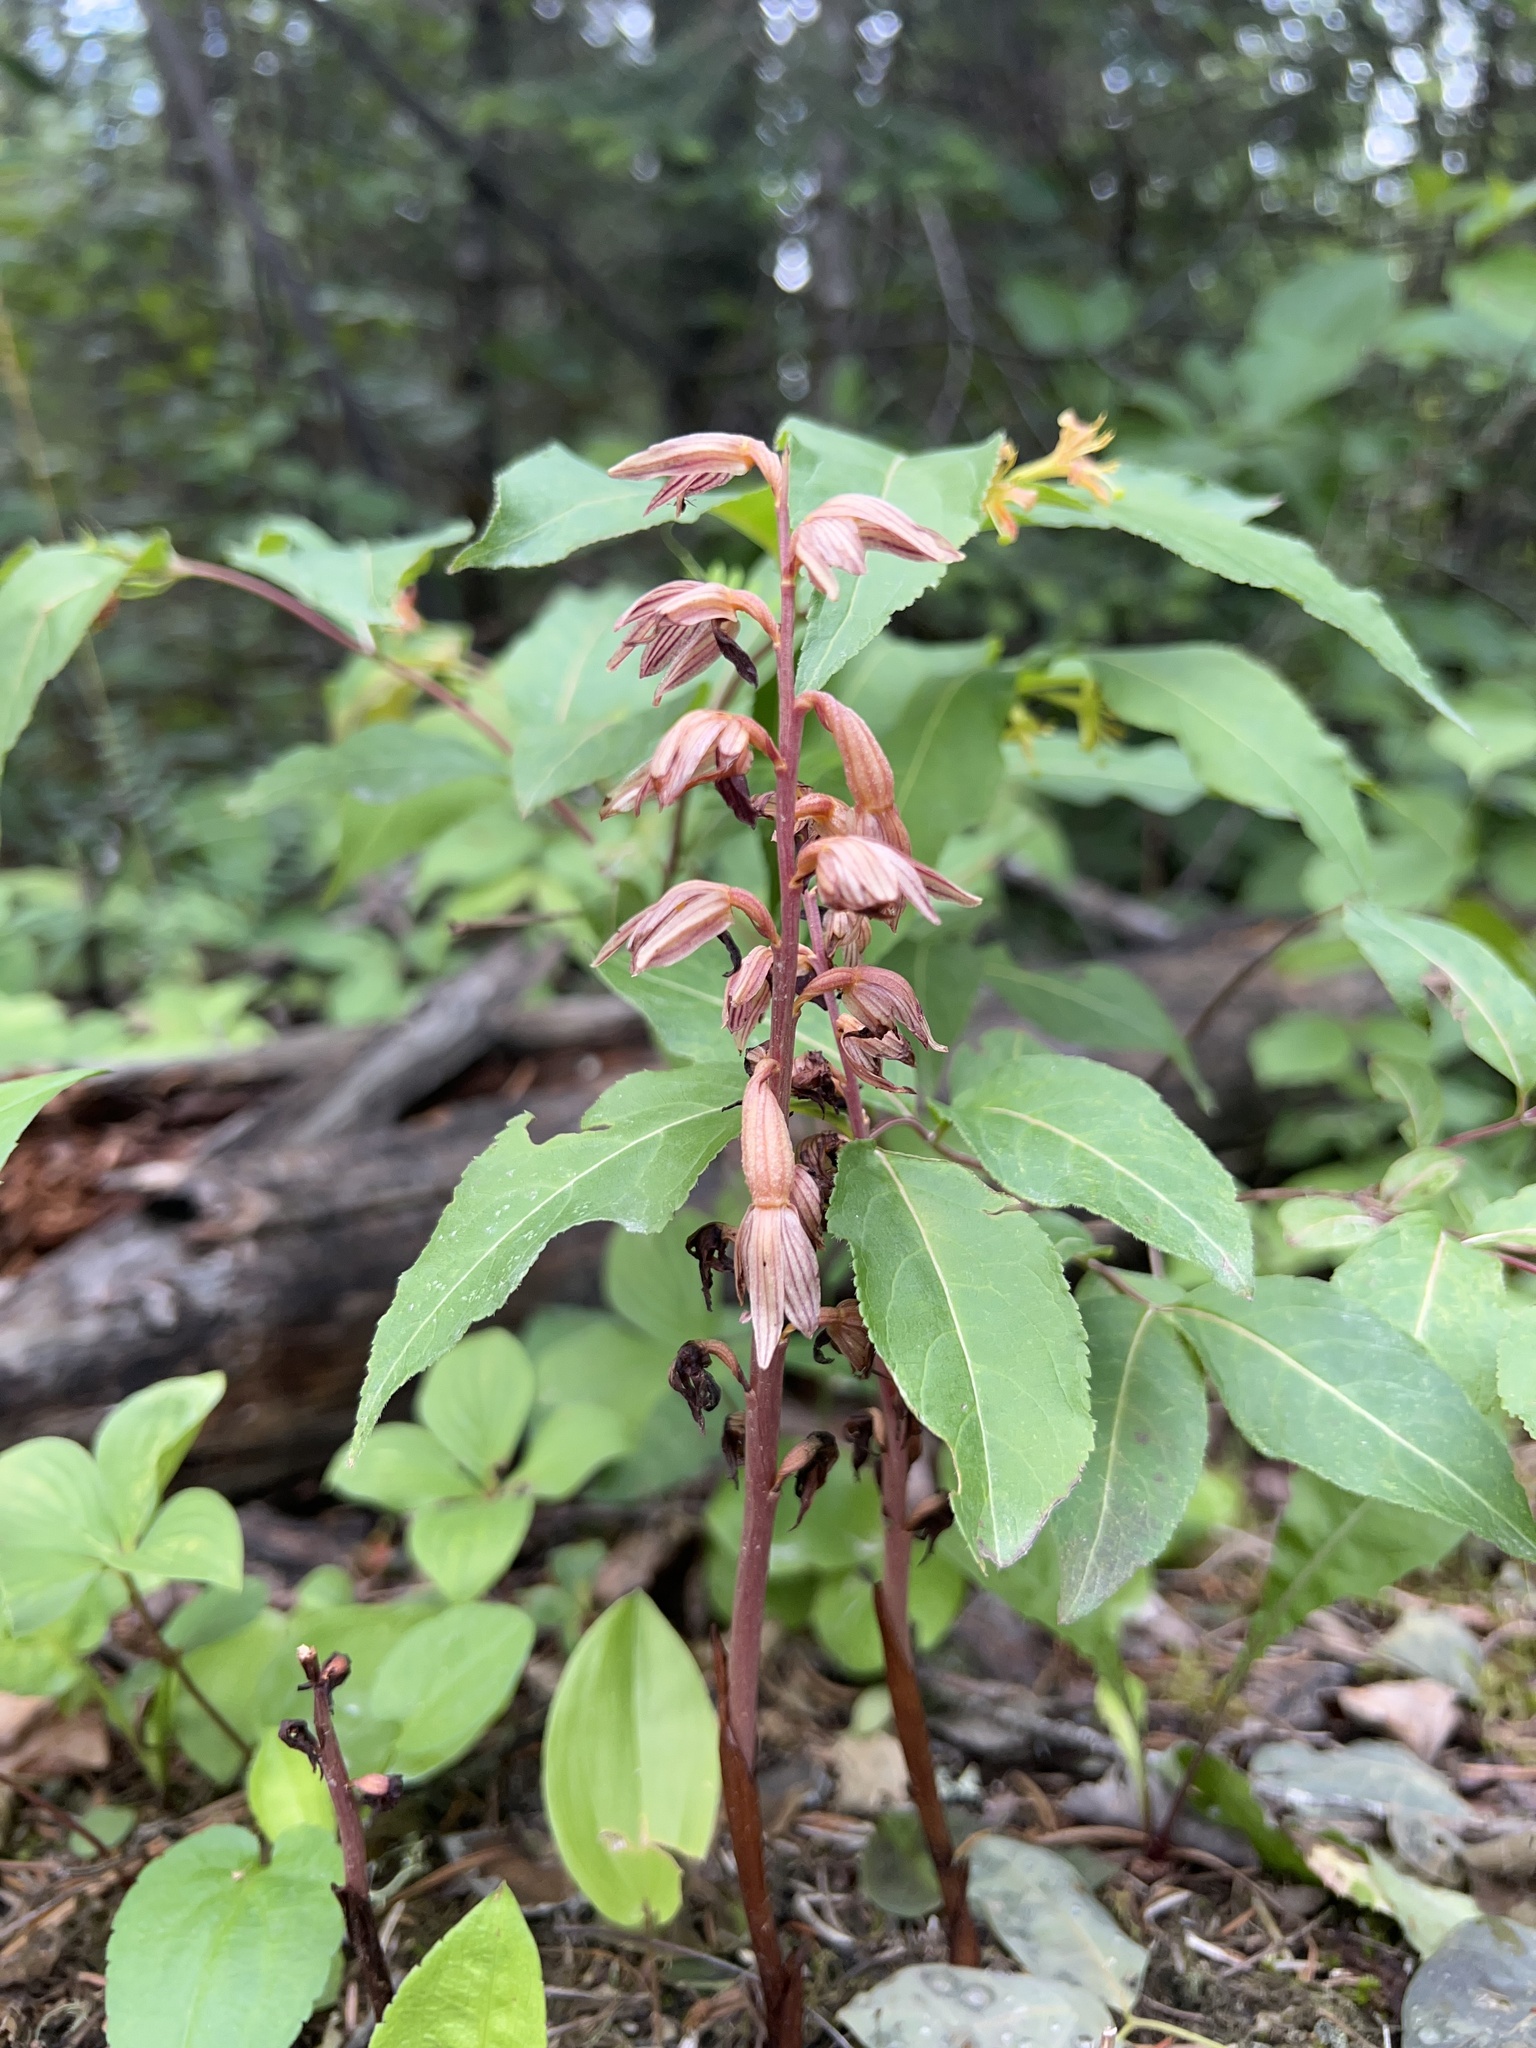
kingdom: Plantae
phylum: Tracheophyta
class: Liliopsida
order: Asparagales
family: Orchidaceae
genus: Corallorhiza
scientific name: Corallorhiza striata
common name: Hooded coralroot
